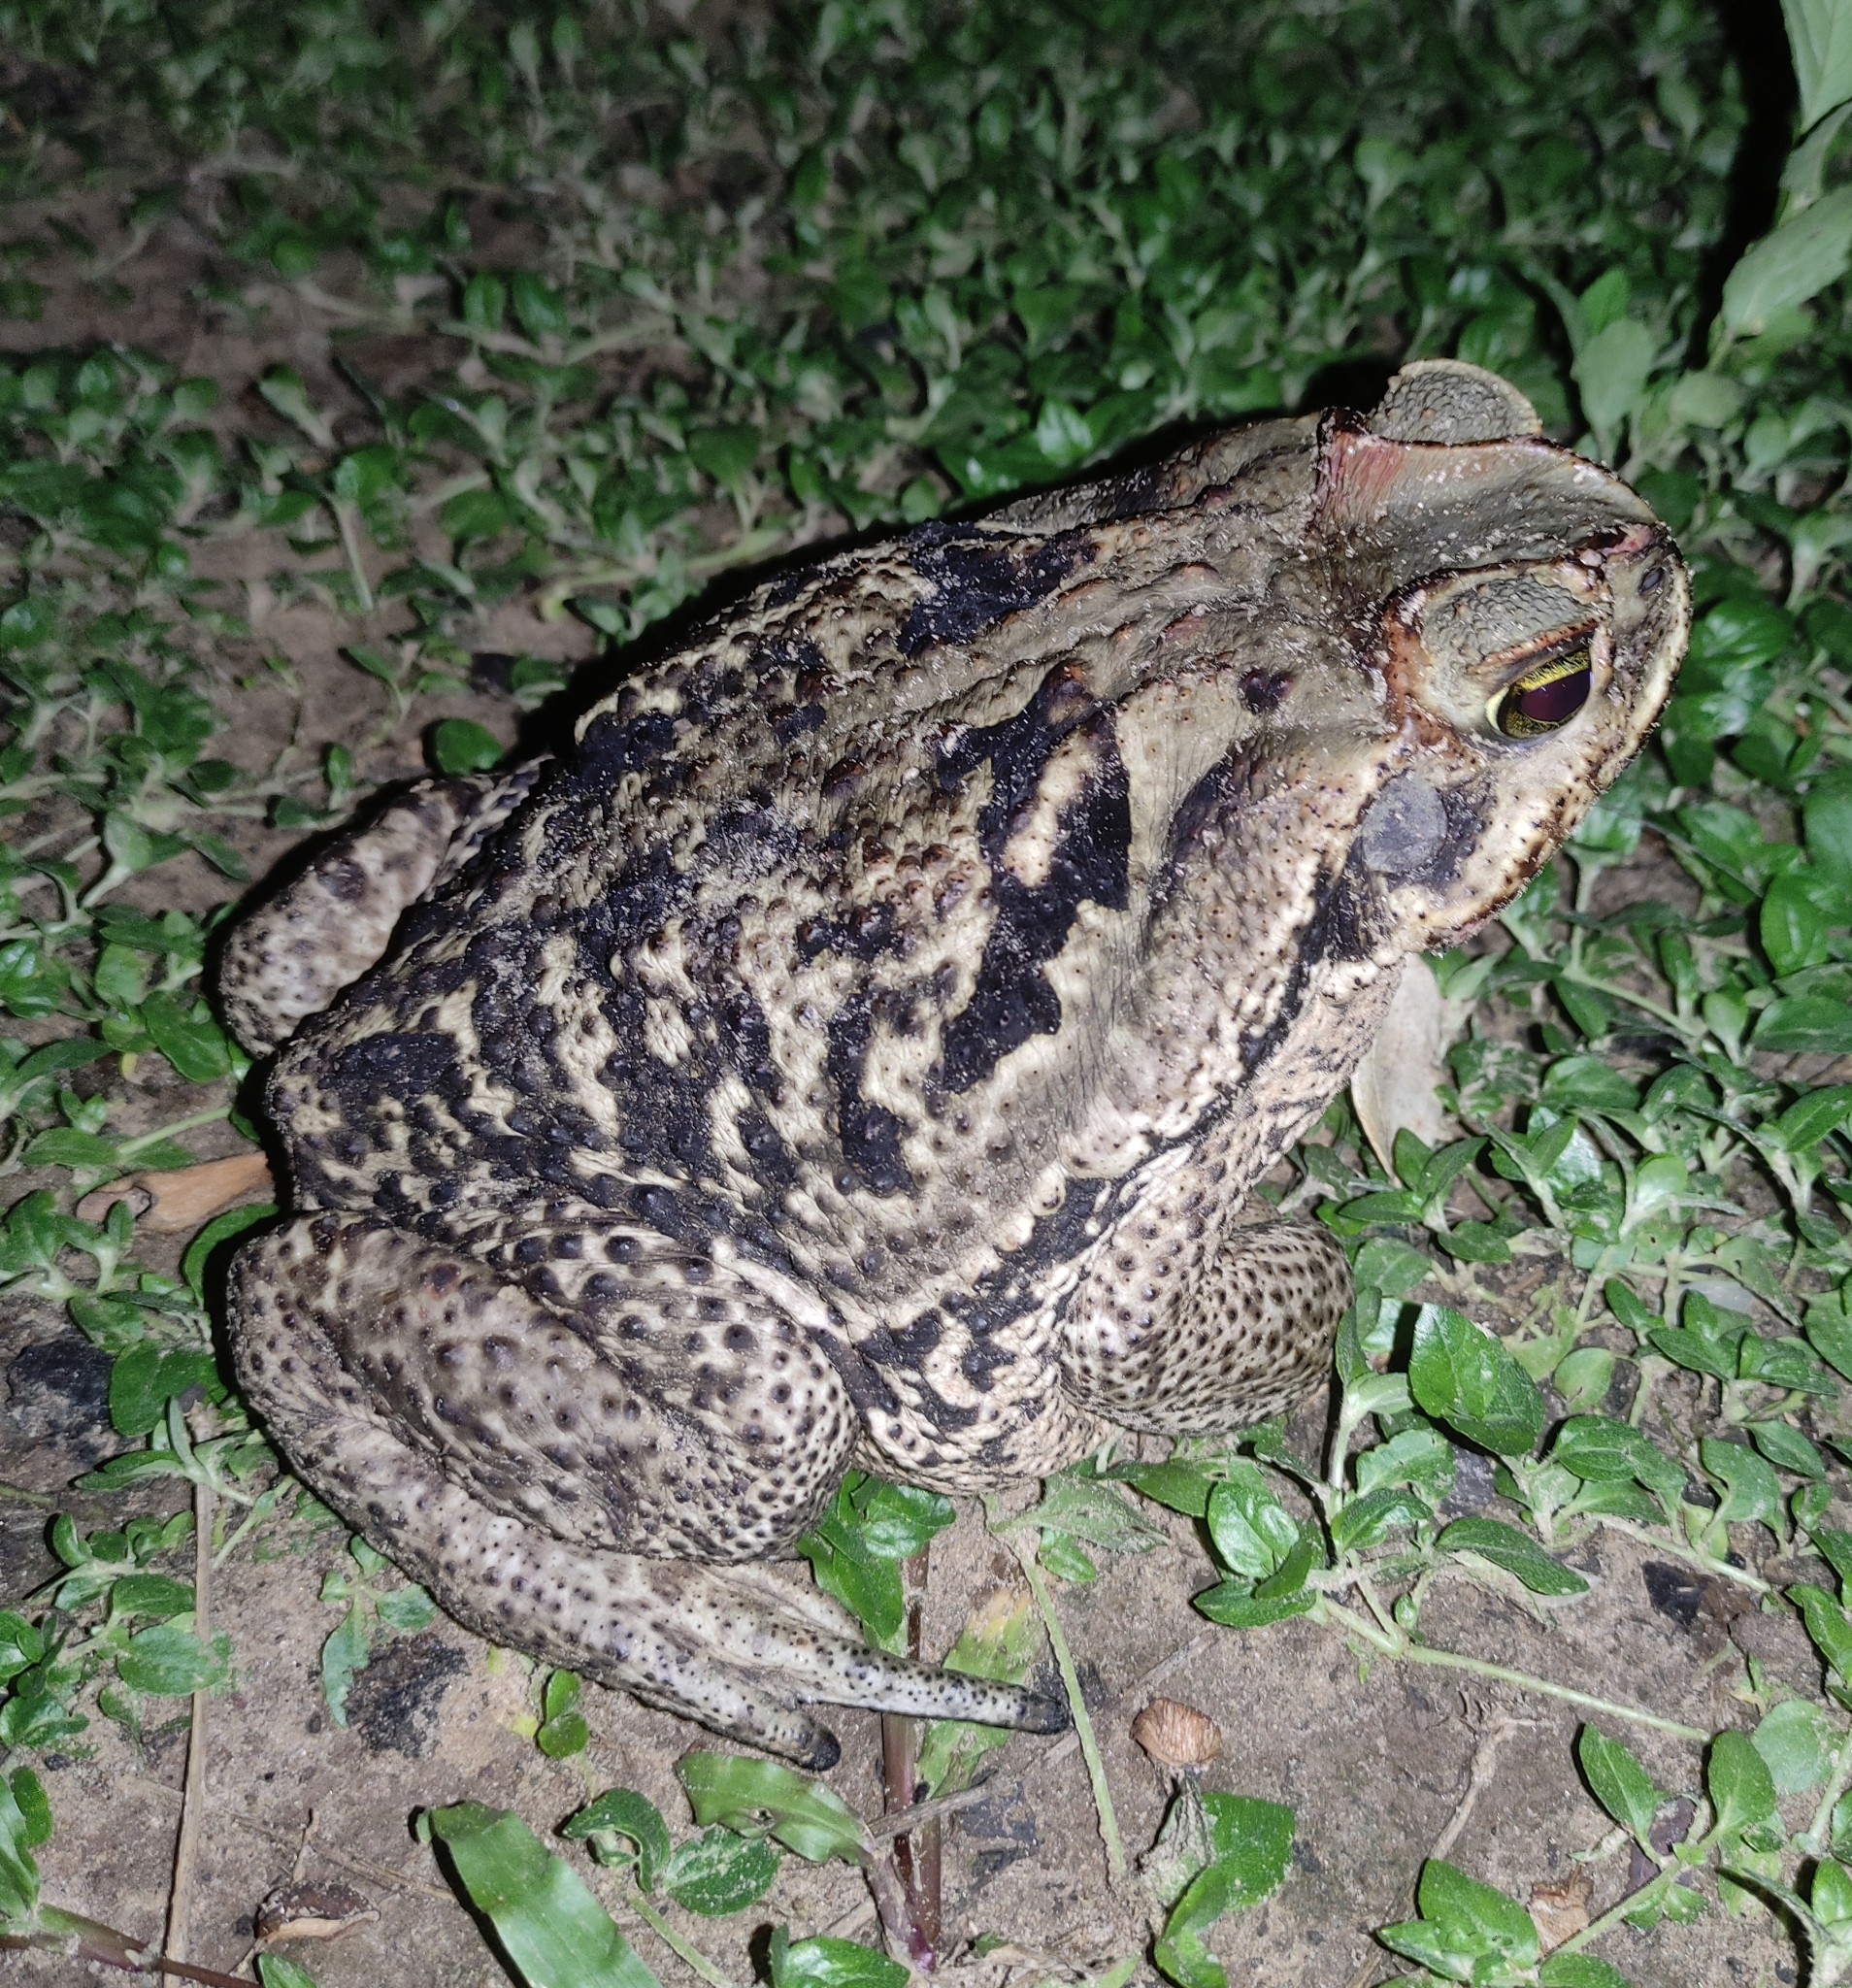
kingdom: Animalia
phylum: Chordata
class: Amphibia
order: Anura
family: Bufonidae
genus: Rhinella
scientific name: Rhinella diptycha
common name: Cope's toad
